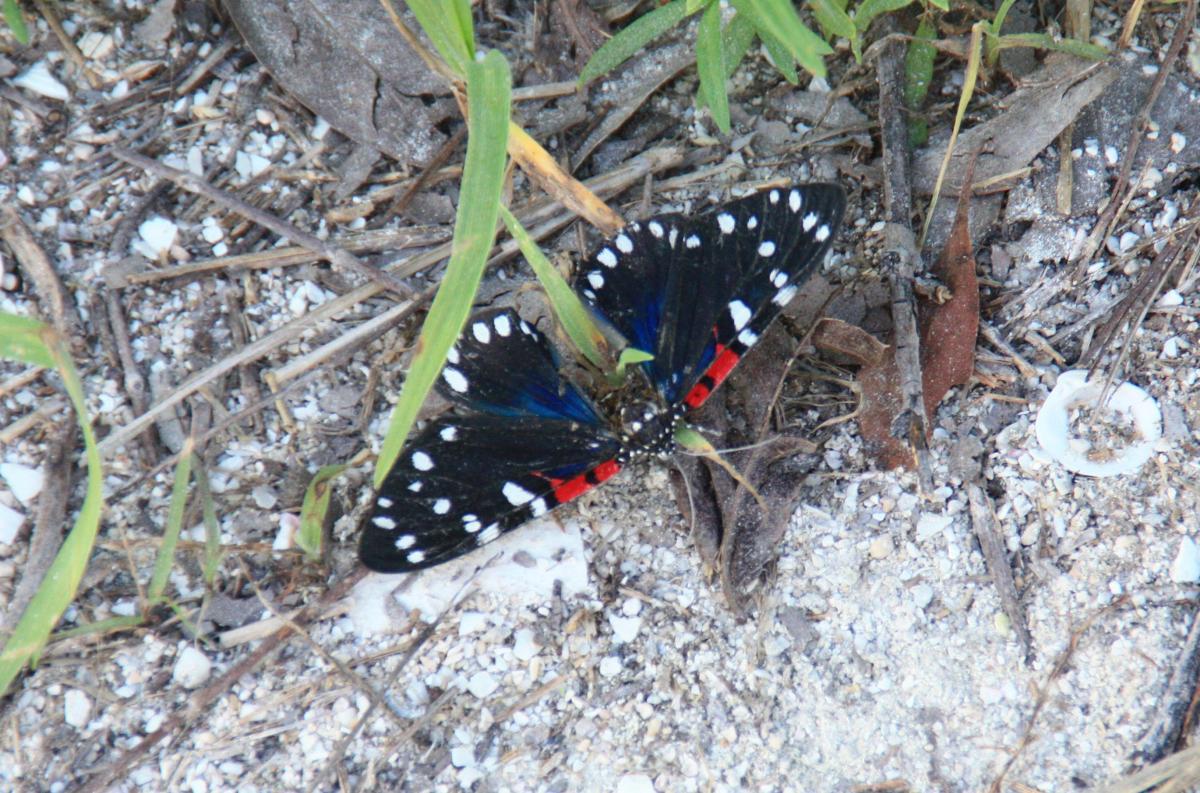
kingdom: Animalia
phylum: Arthropoda
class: Insecta
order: Lepidoptera
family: Erebidae
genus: Composia
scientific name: Composia fidelissima
